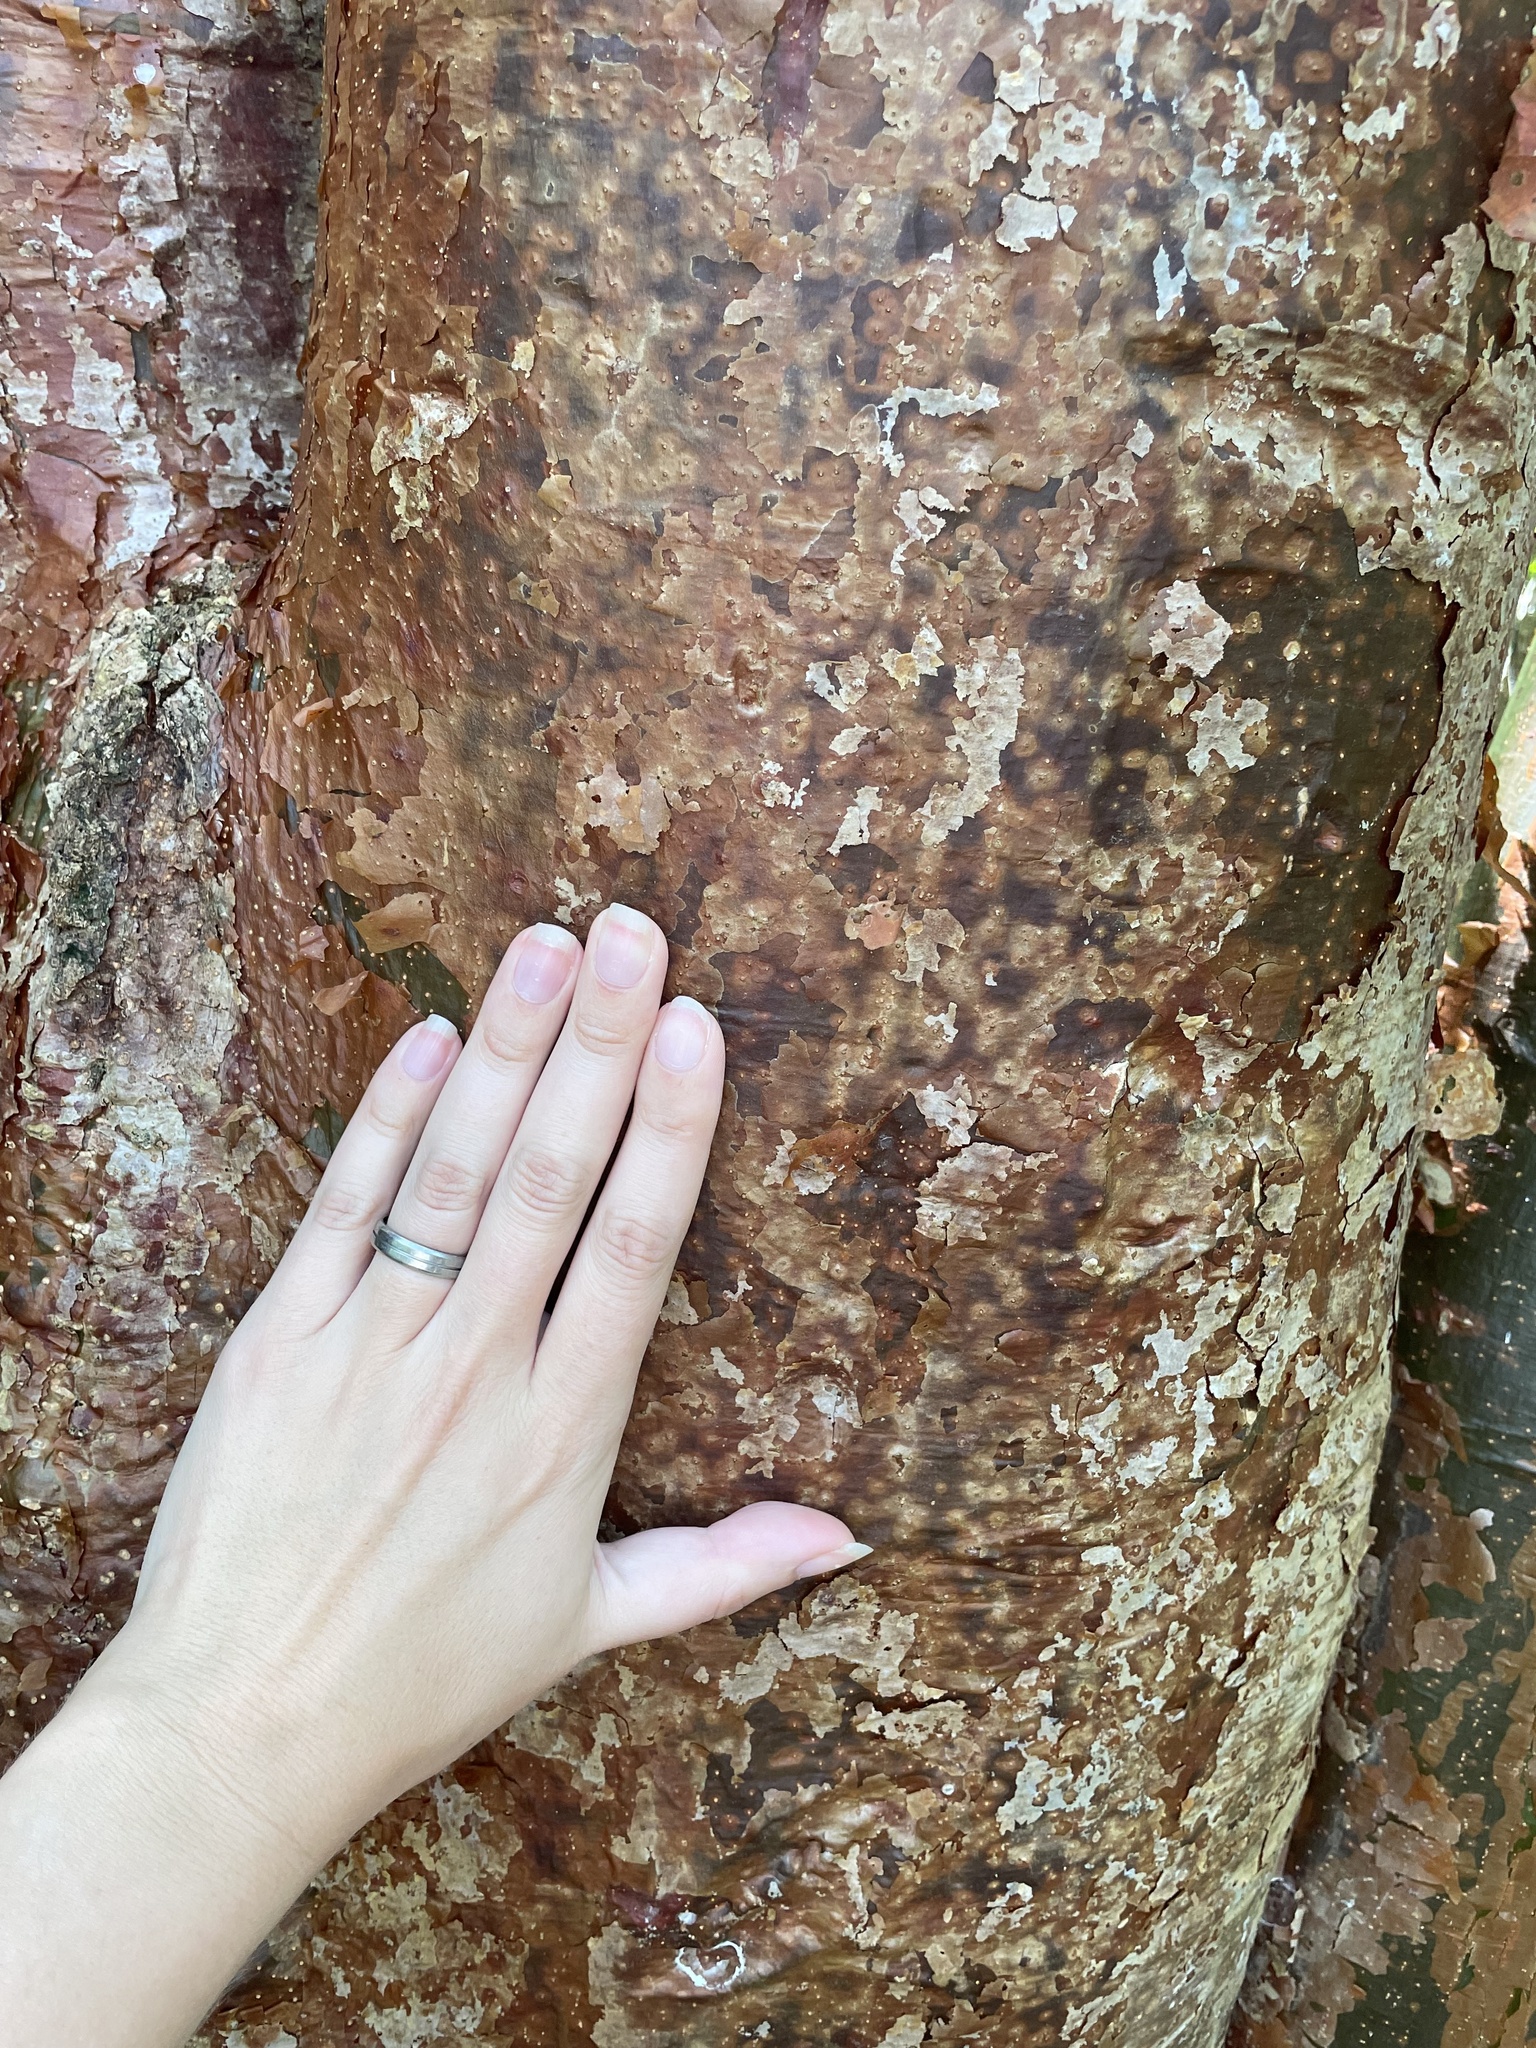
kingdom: Plantae
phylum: Tracheophyta
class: Magnoliopsida
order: Sapindales
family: Burseraceae
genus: Bursera
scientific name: Bursera simaruba
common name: Turpentine tree
